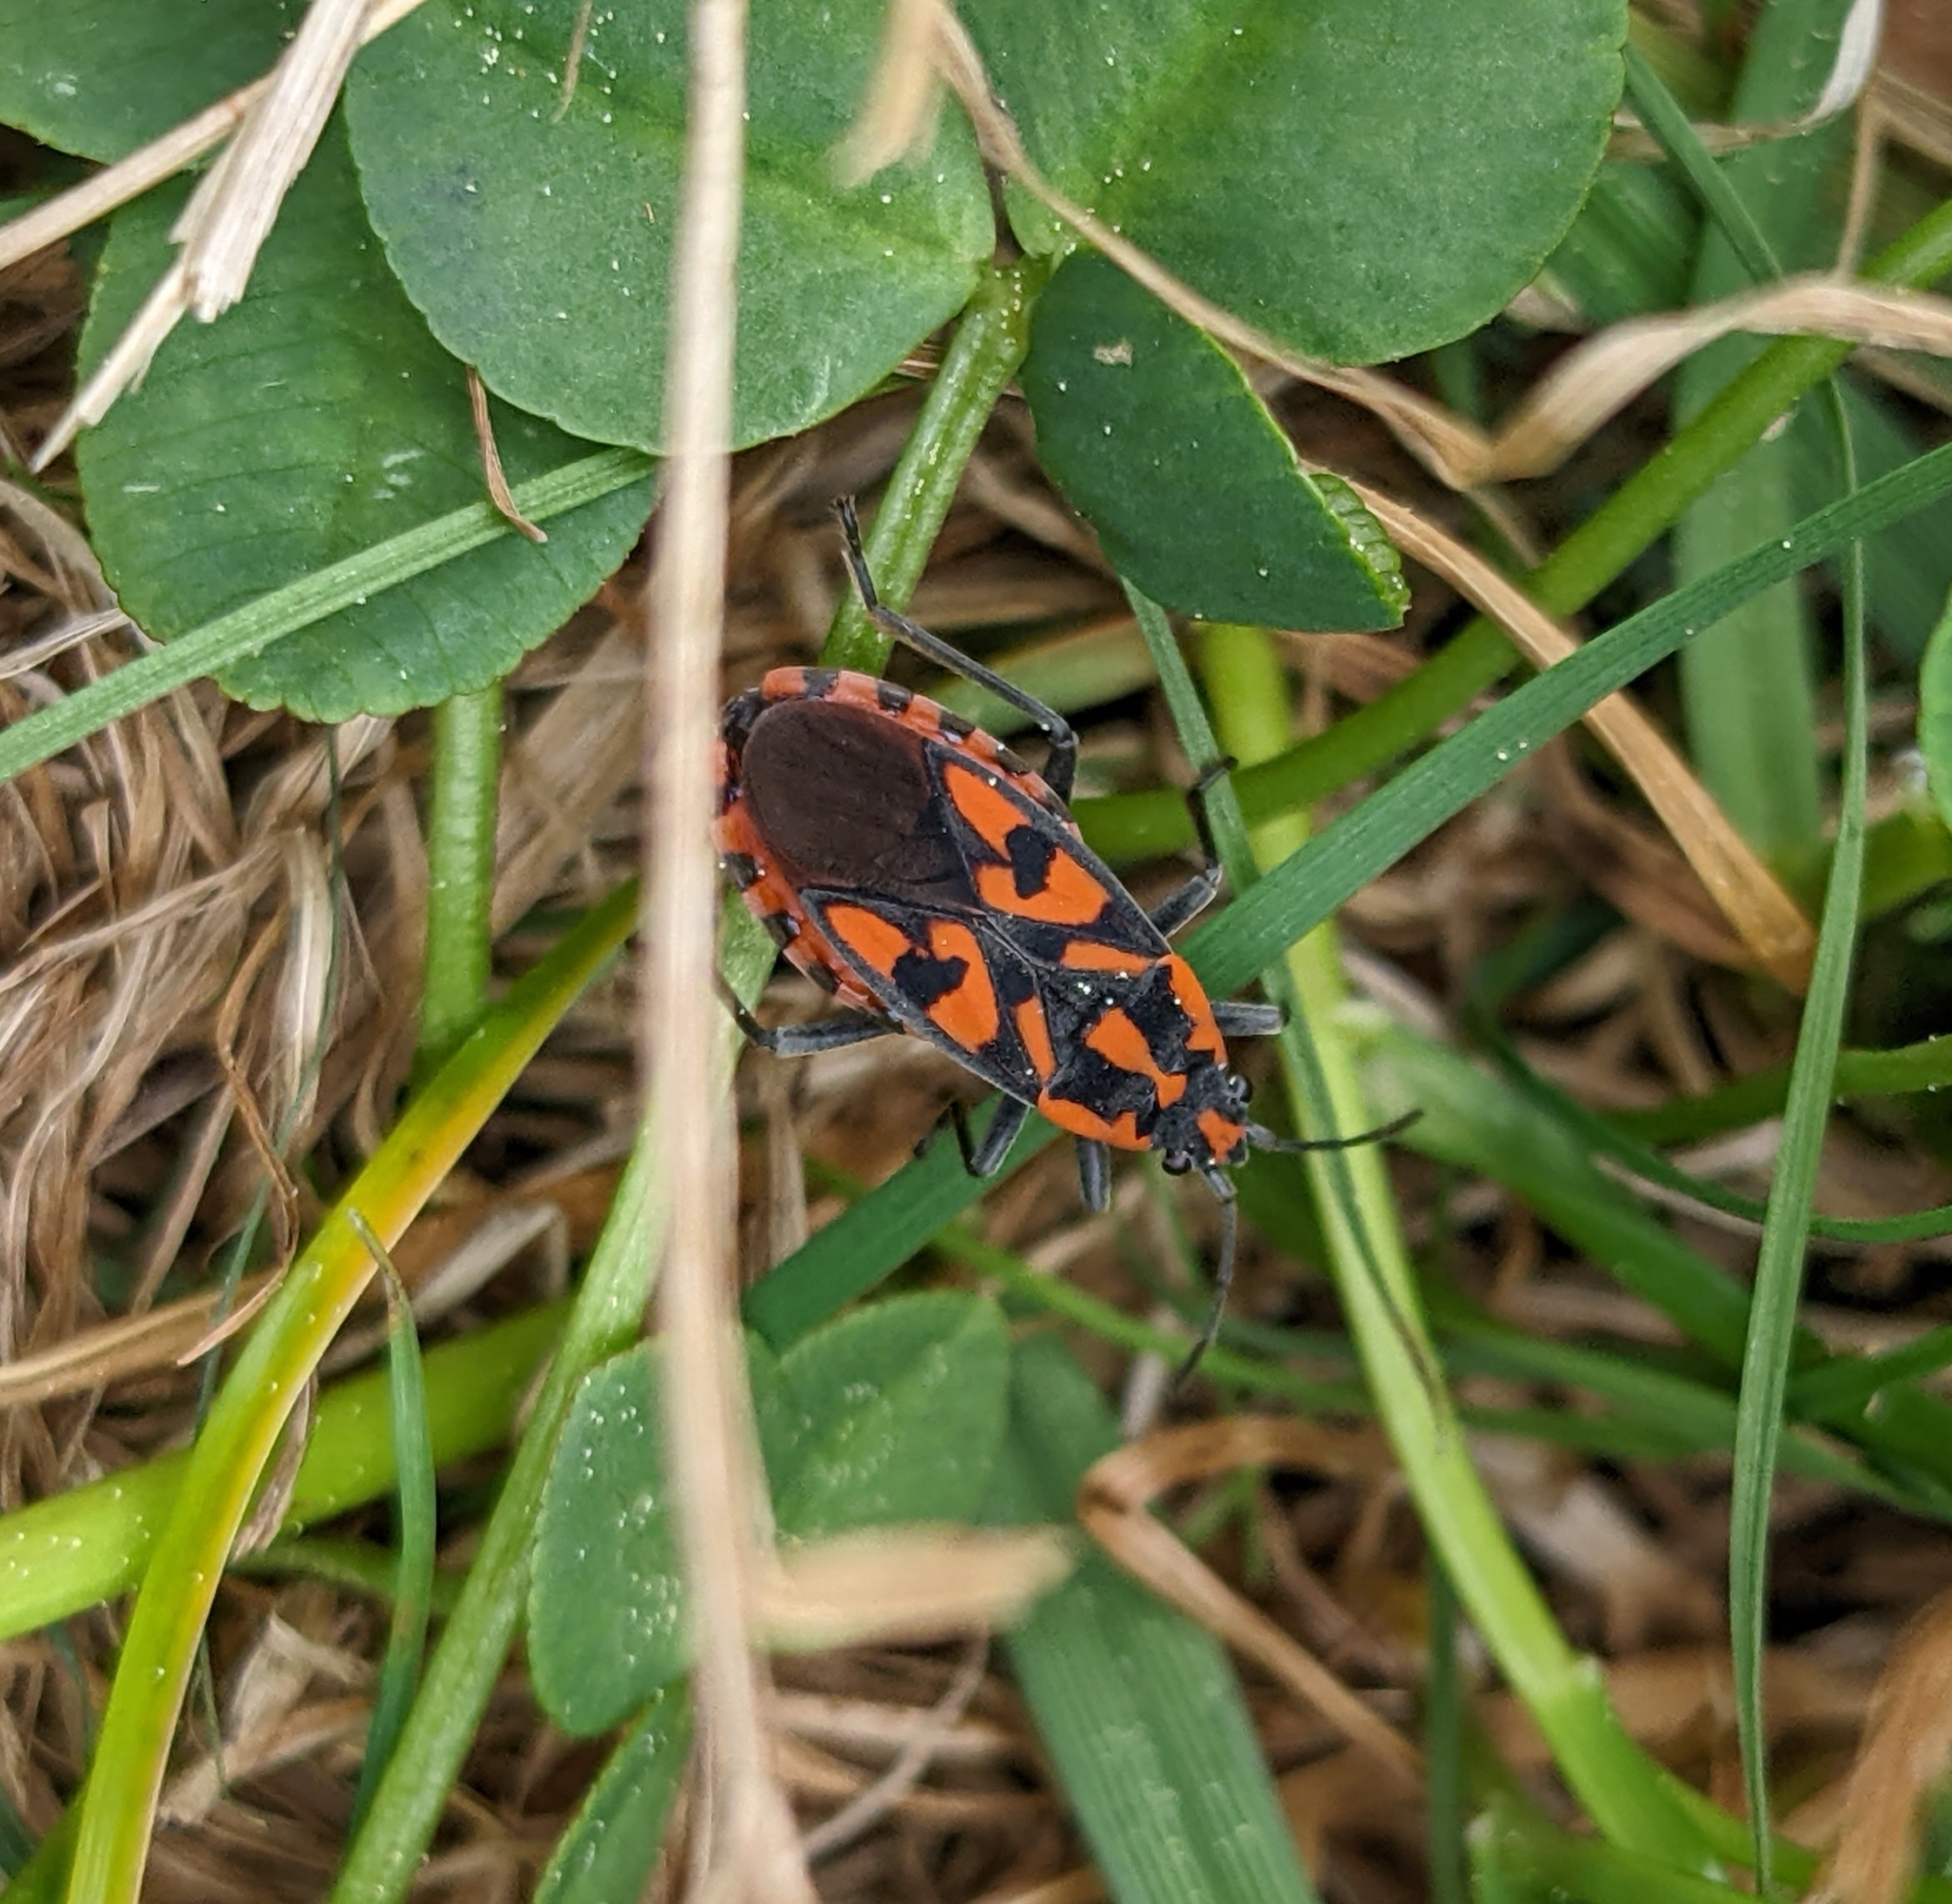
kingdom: Animalia
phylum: Arthropoda
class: Insecta
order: Hemiptera
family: Lygaeidae
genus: Spilostethus
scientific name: Spilostethus saxatilis
